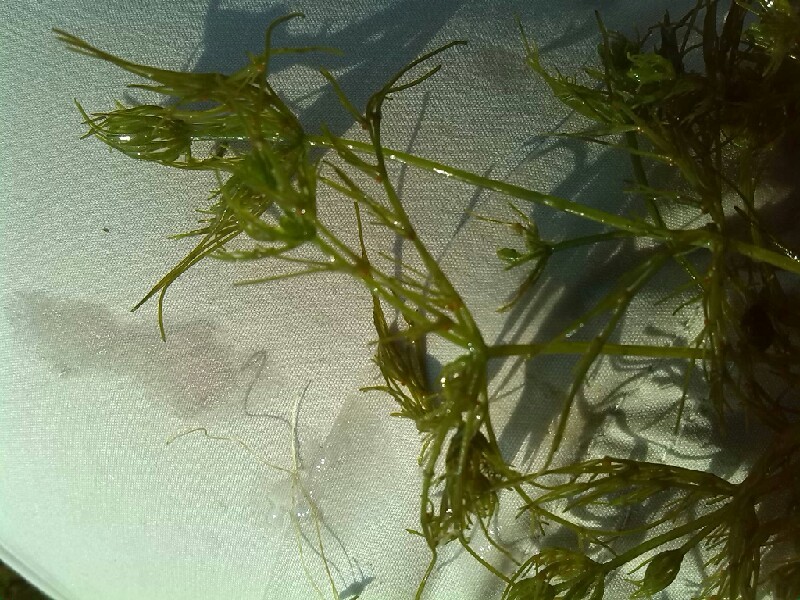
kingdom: Plantae
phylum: Charophyta
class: Charophyceae
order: Charales
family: Characeae
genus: Chara
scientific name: Chara vulgaris
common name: Common stonewort
